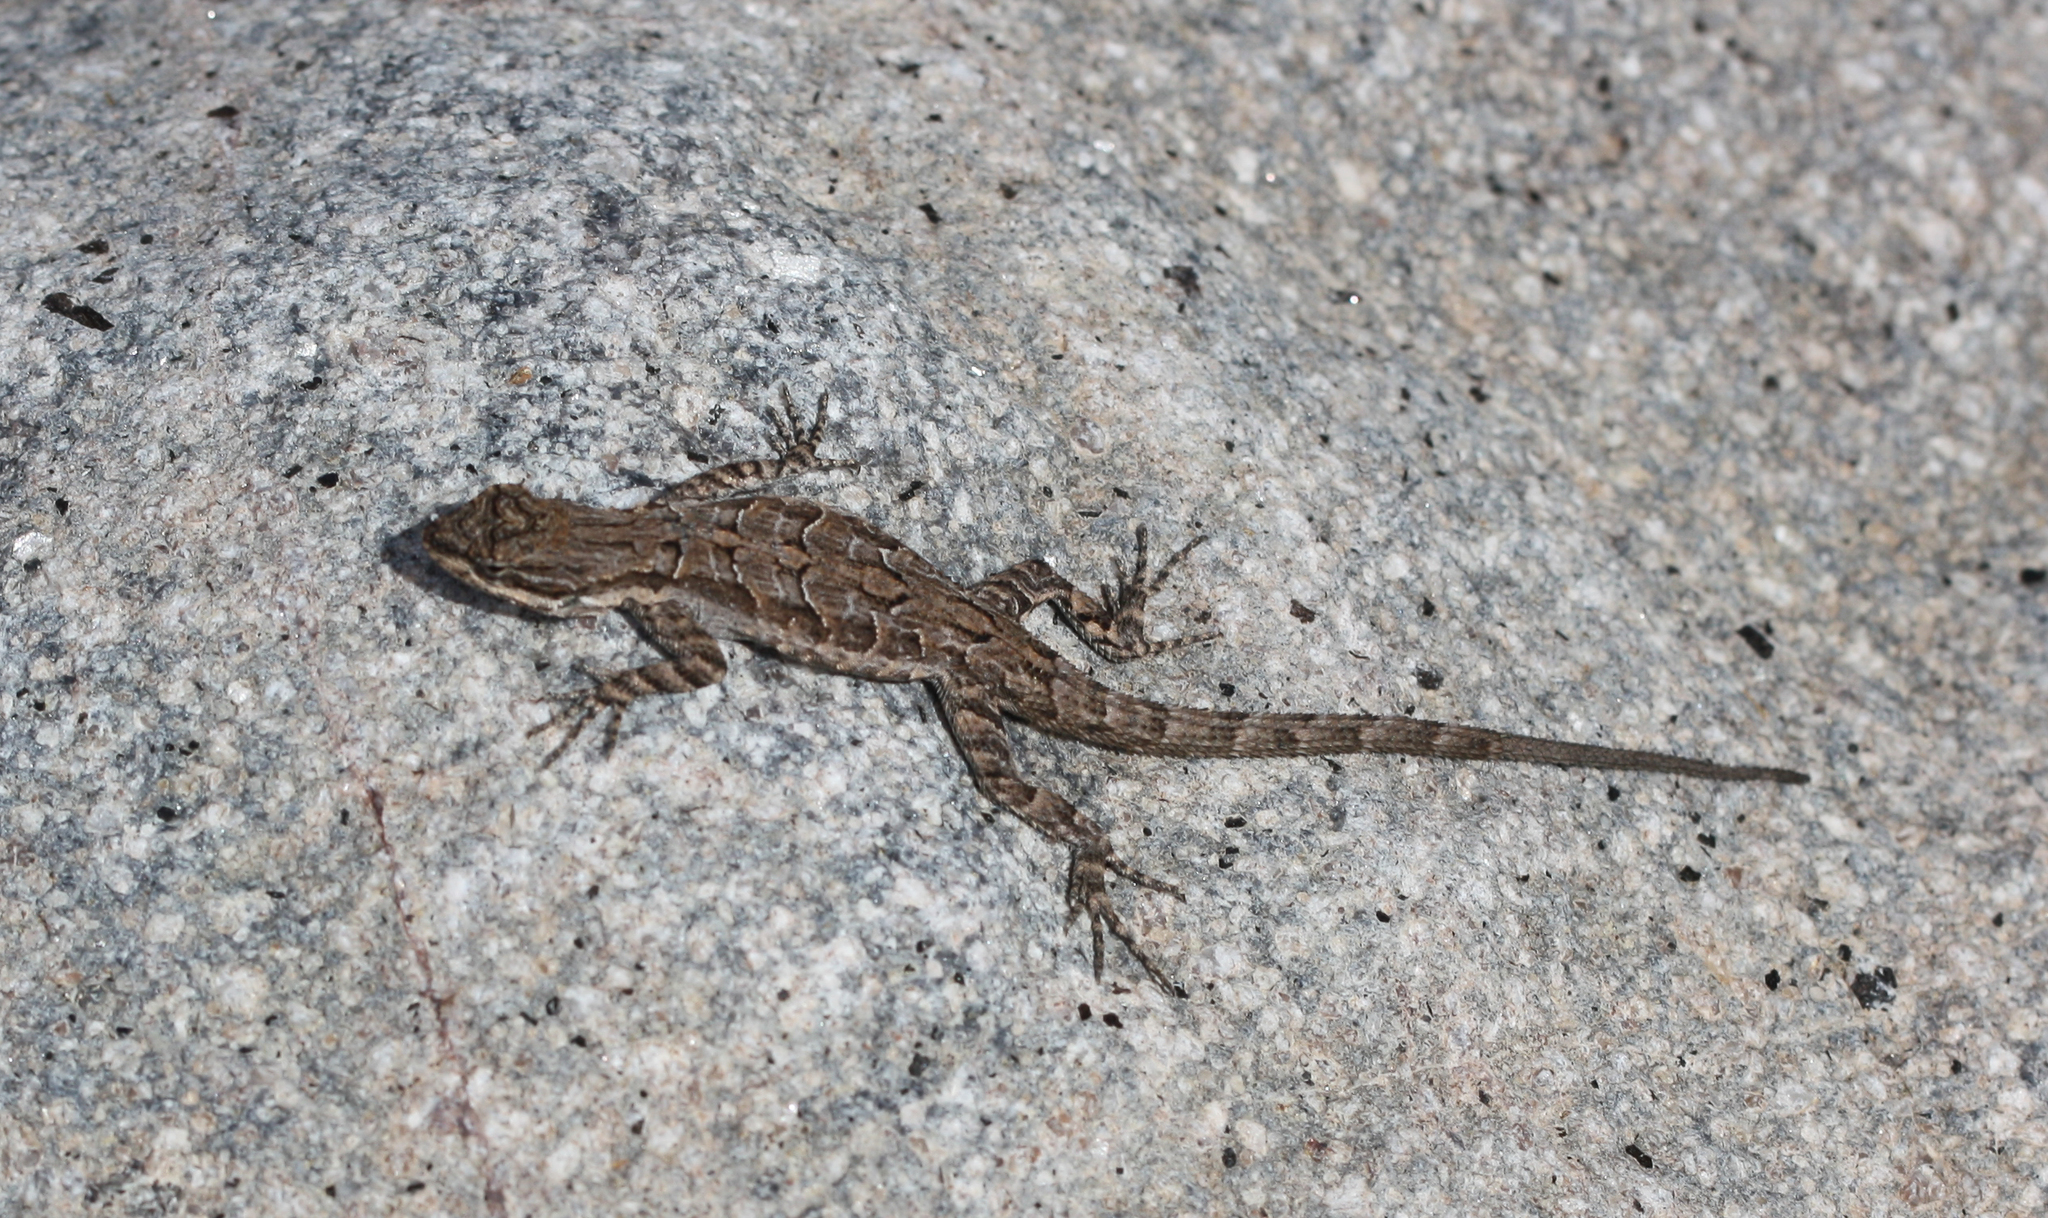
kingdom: Animalia
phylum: Chordata
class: Squamata
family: Phrynosomatidae
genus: Urosaurus
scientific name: Urosaurus ornatus
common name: Ornate tree lizard
